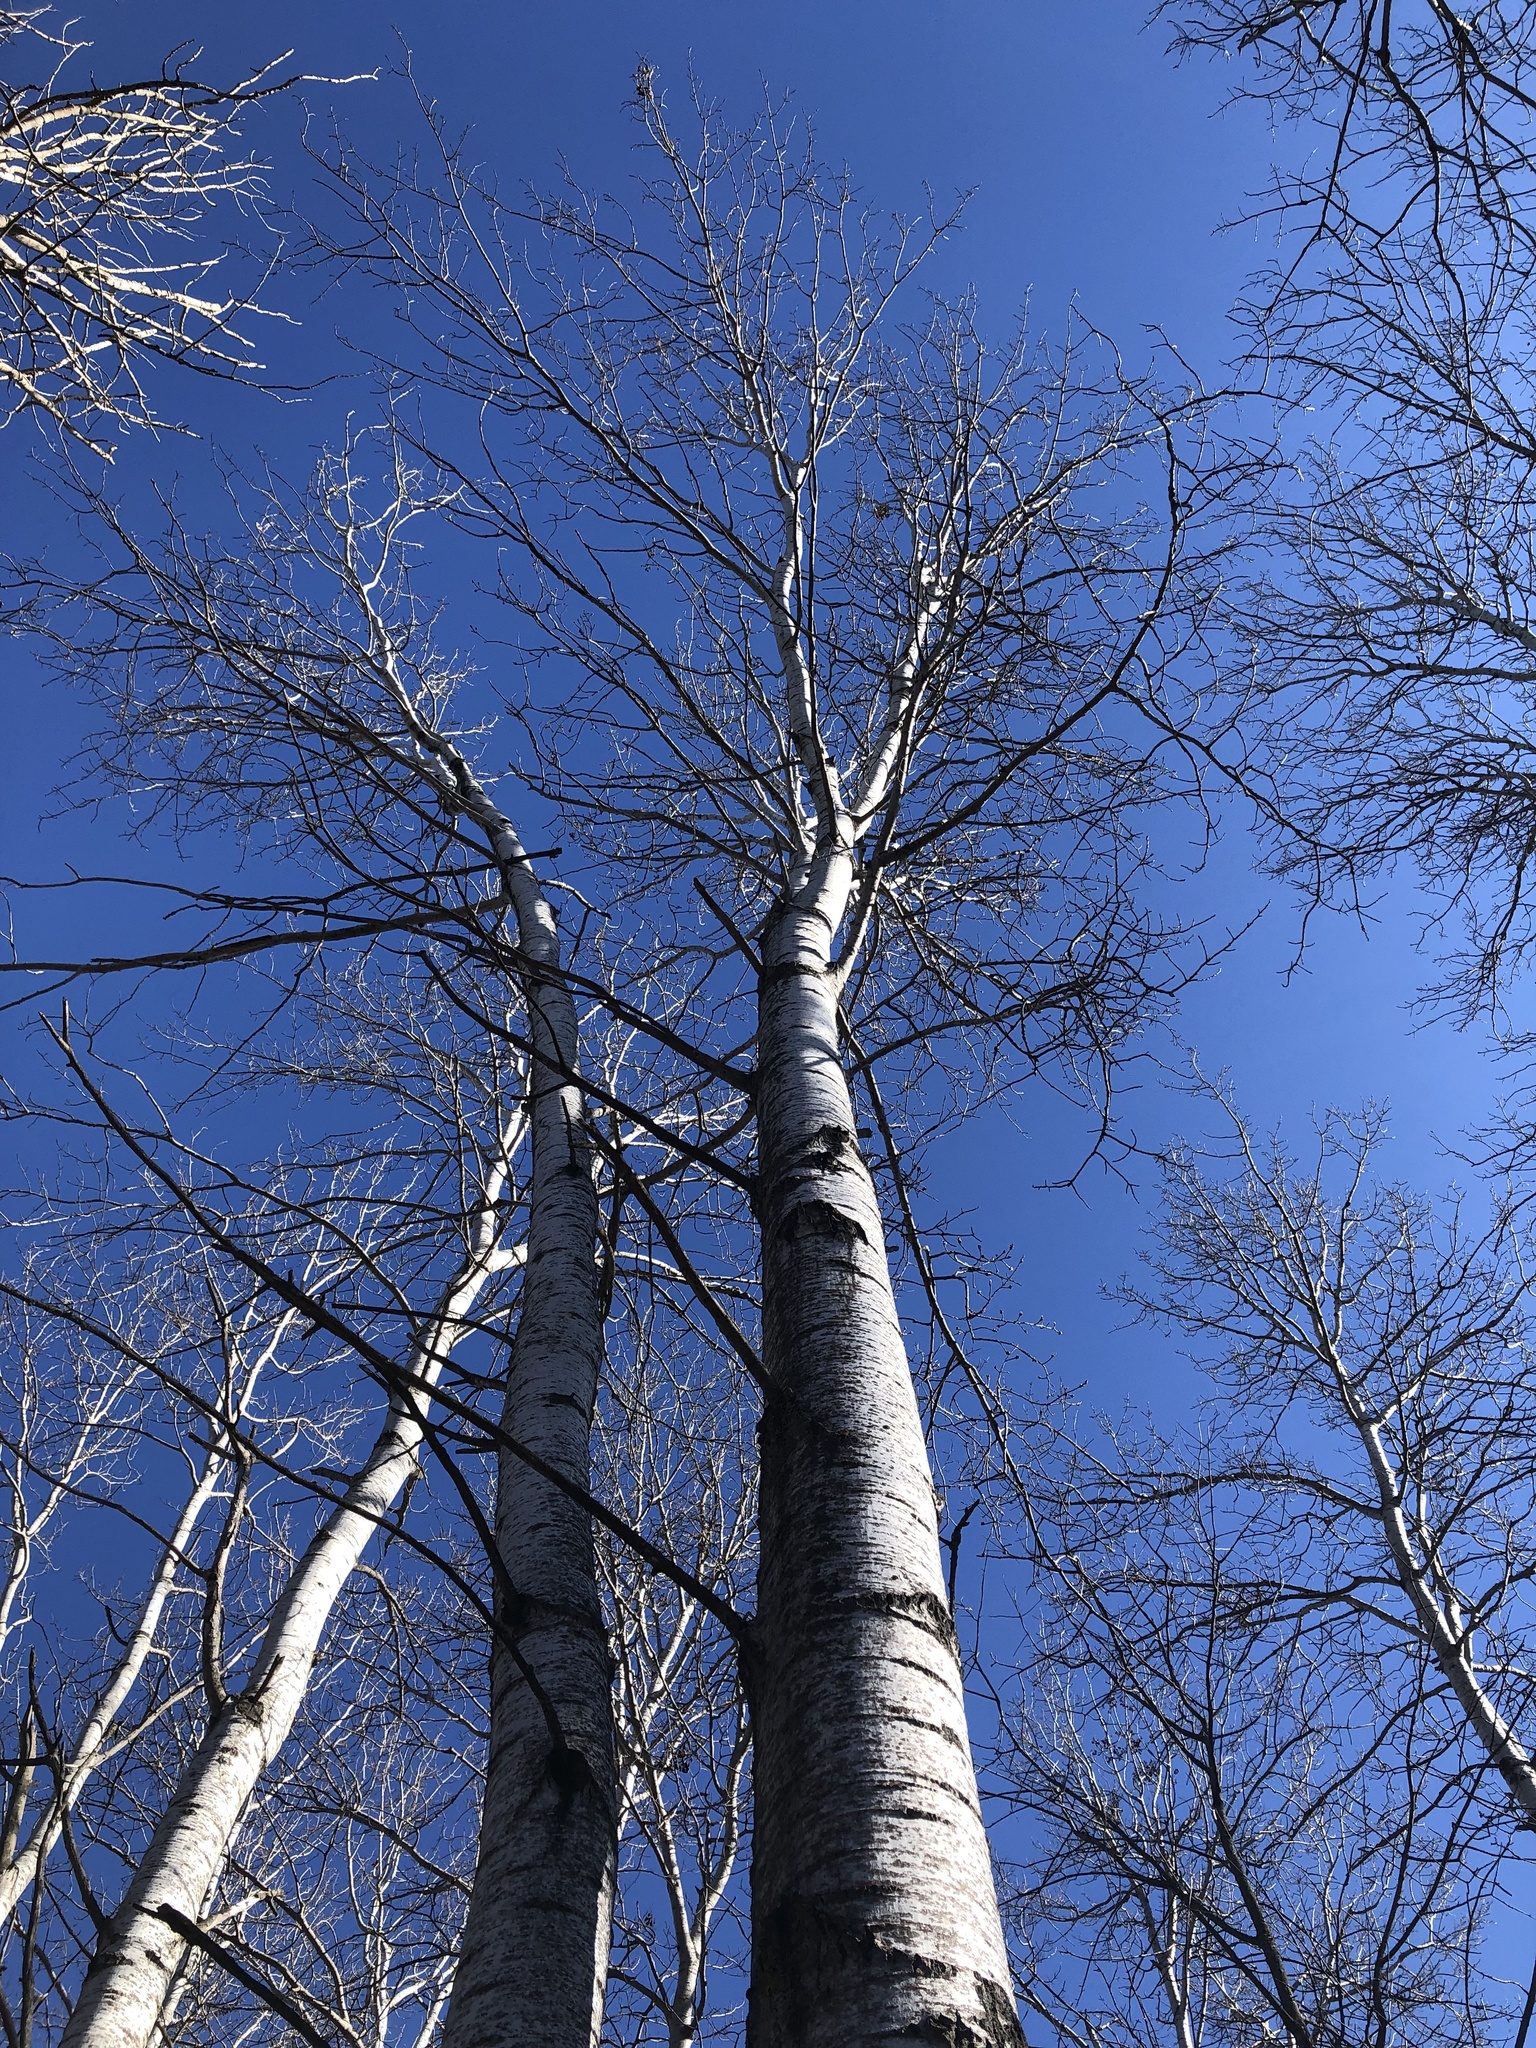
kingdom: Plantae
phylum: Tracheophyta
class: Magnoliopsida
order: Malpighiales
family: Salicaceae
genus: Populus
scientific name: Populus tremuloides
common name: Quaking aspen
